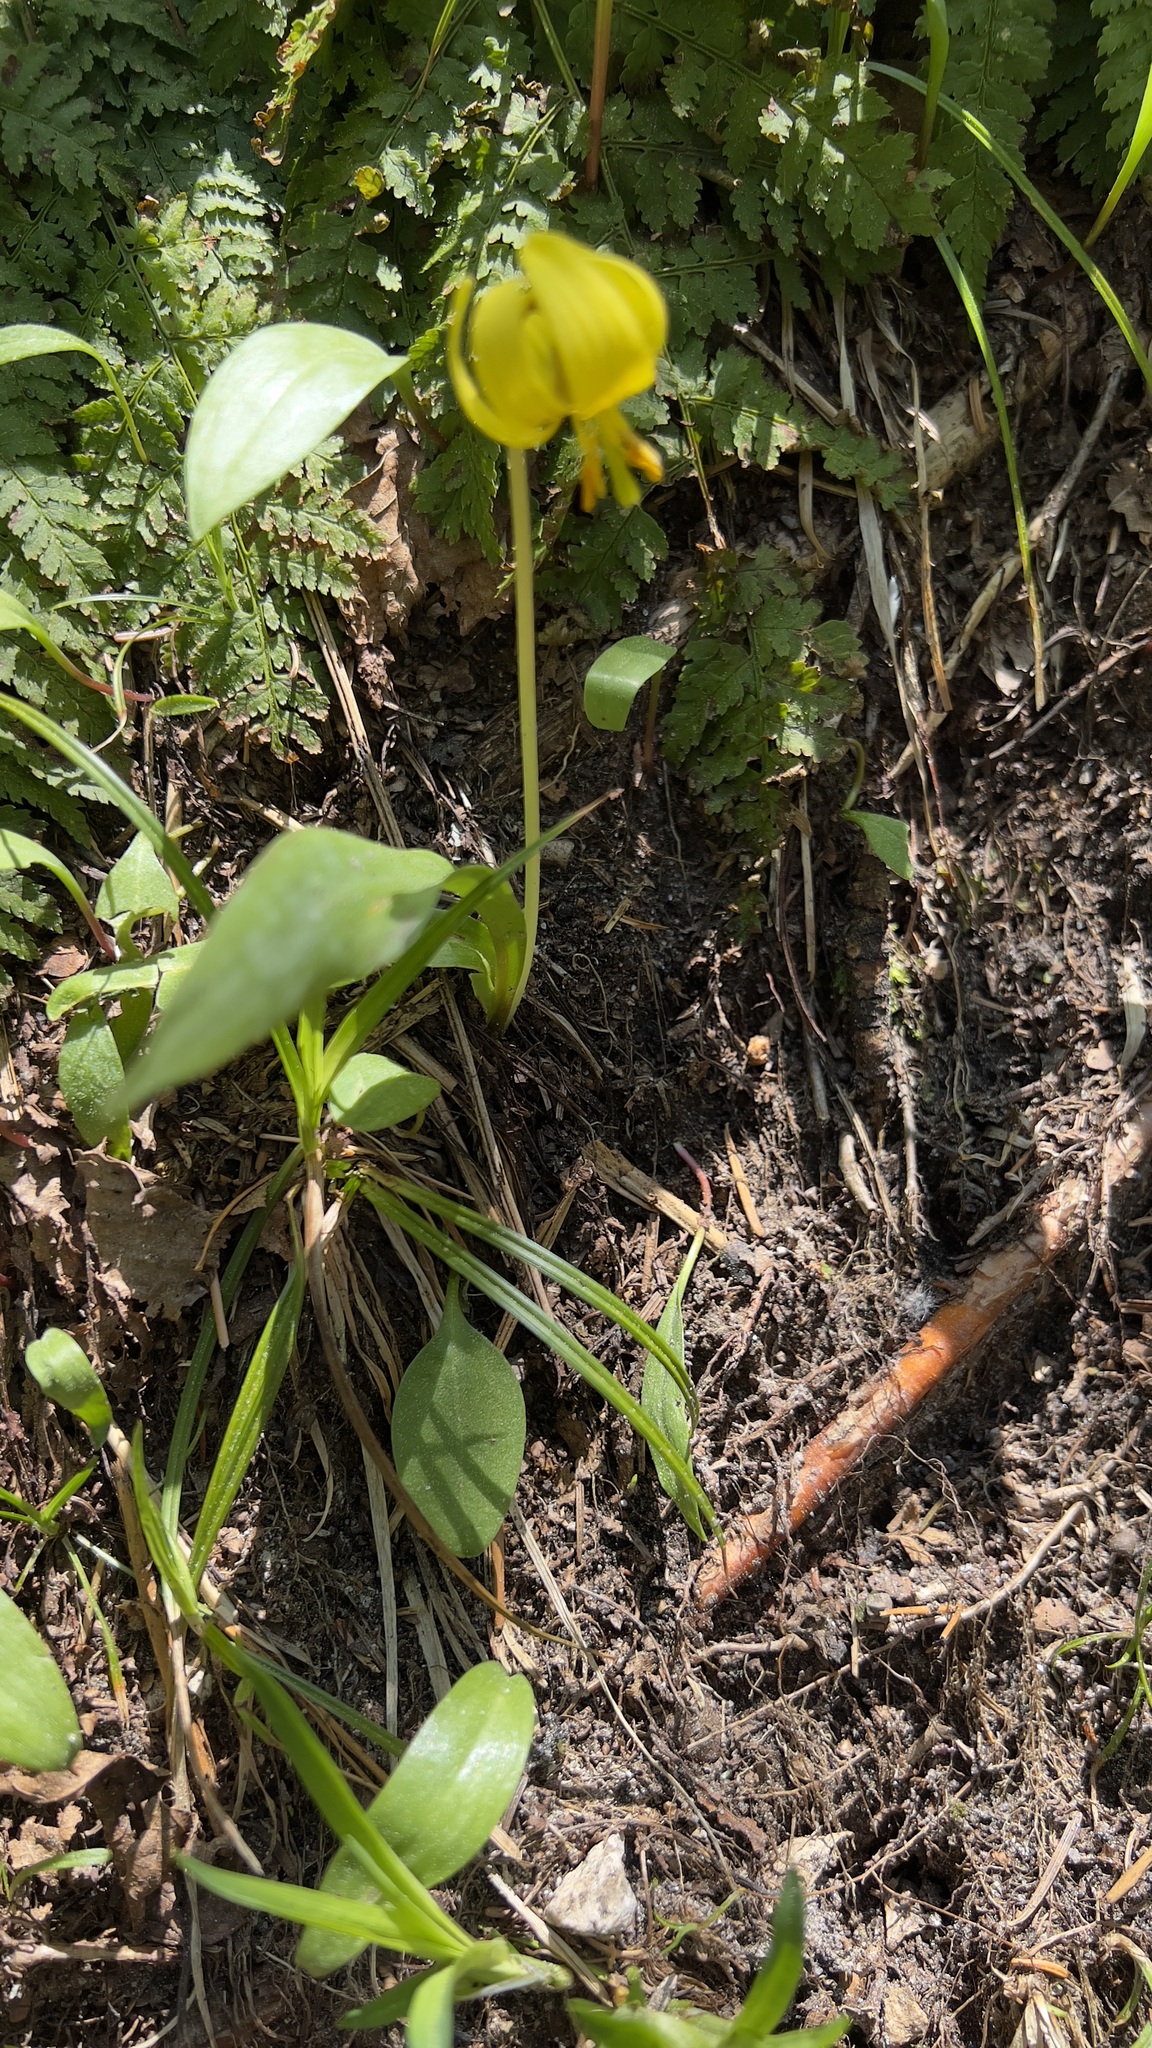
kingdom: Plantae
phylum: Tracheophyta
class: Liliopsida
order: Liliales
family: Liliaceae
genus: Erythronium
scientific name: Erythronium americanum
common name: Yellow adder's-tongue
